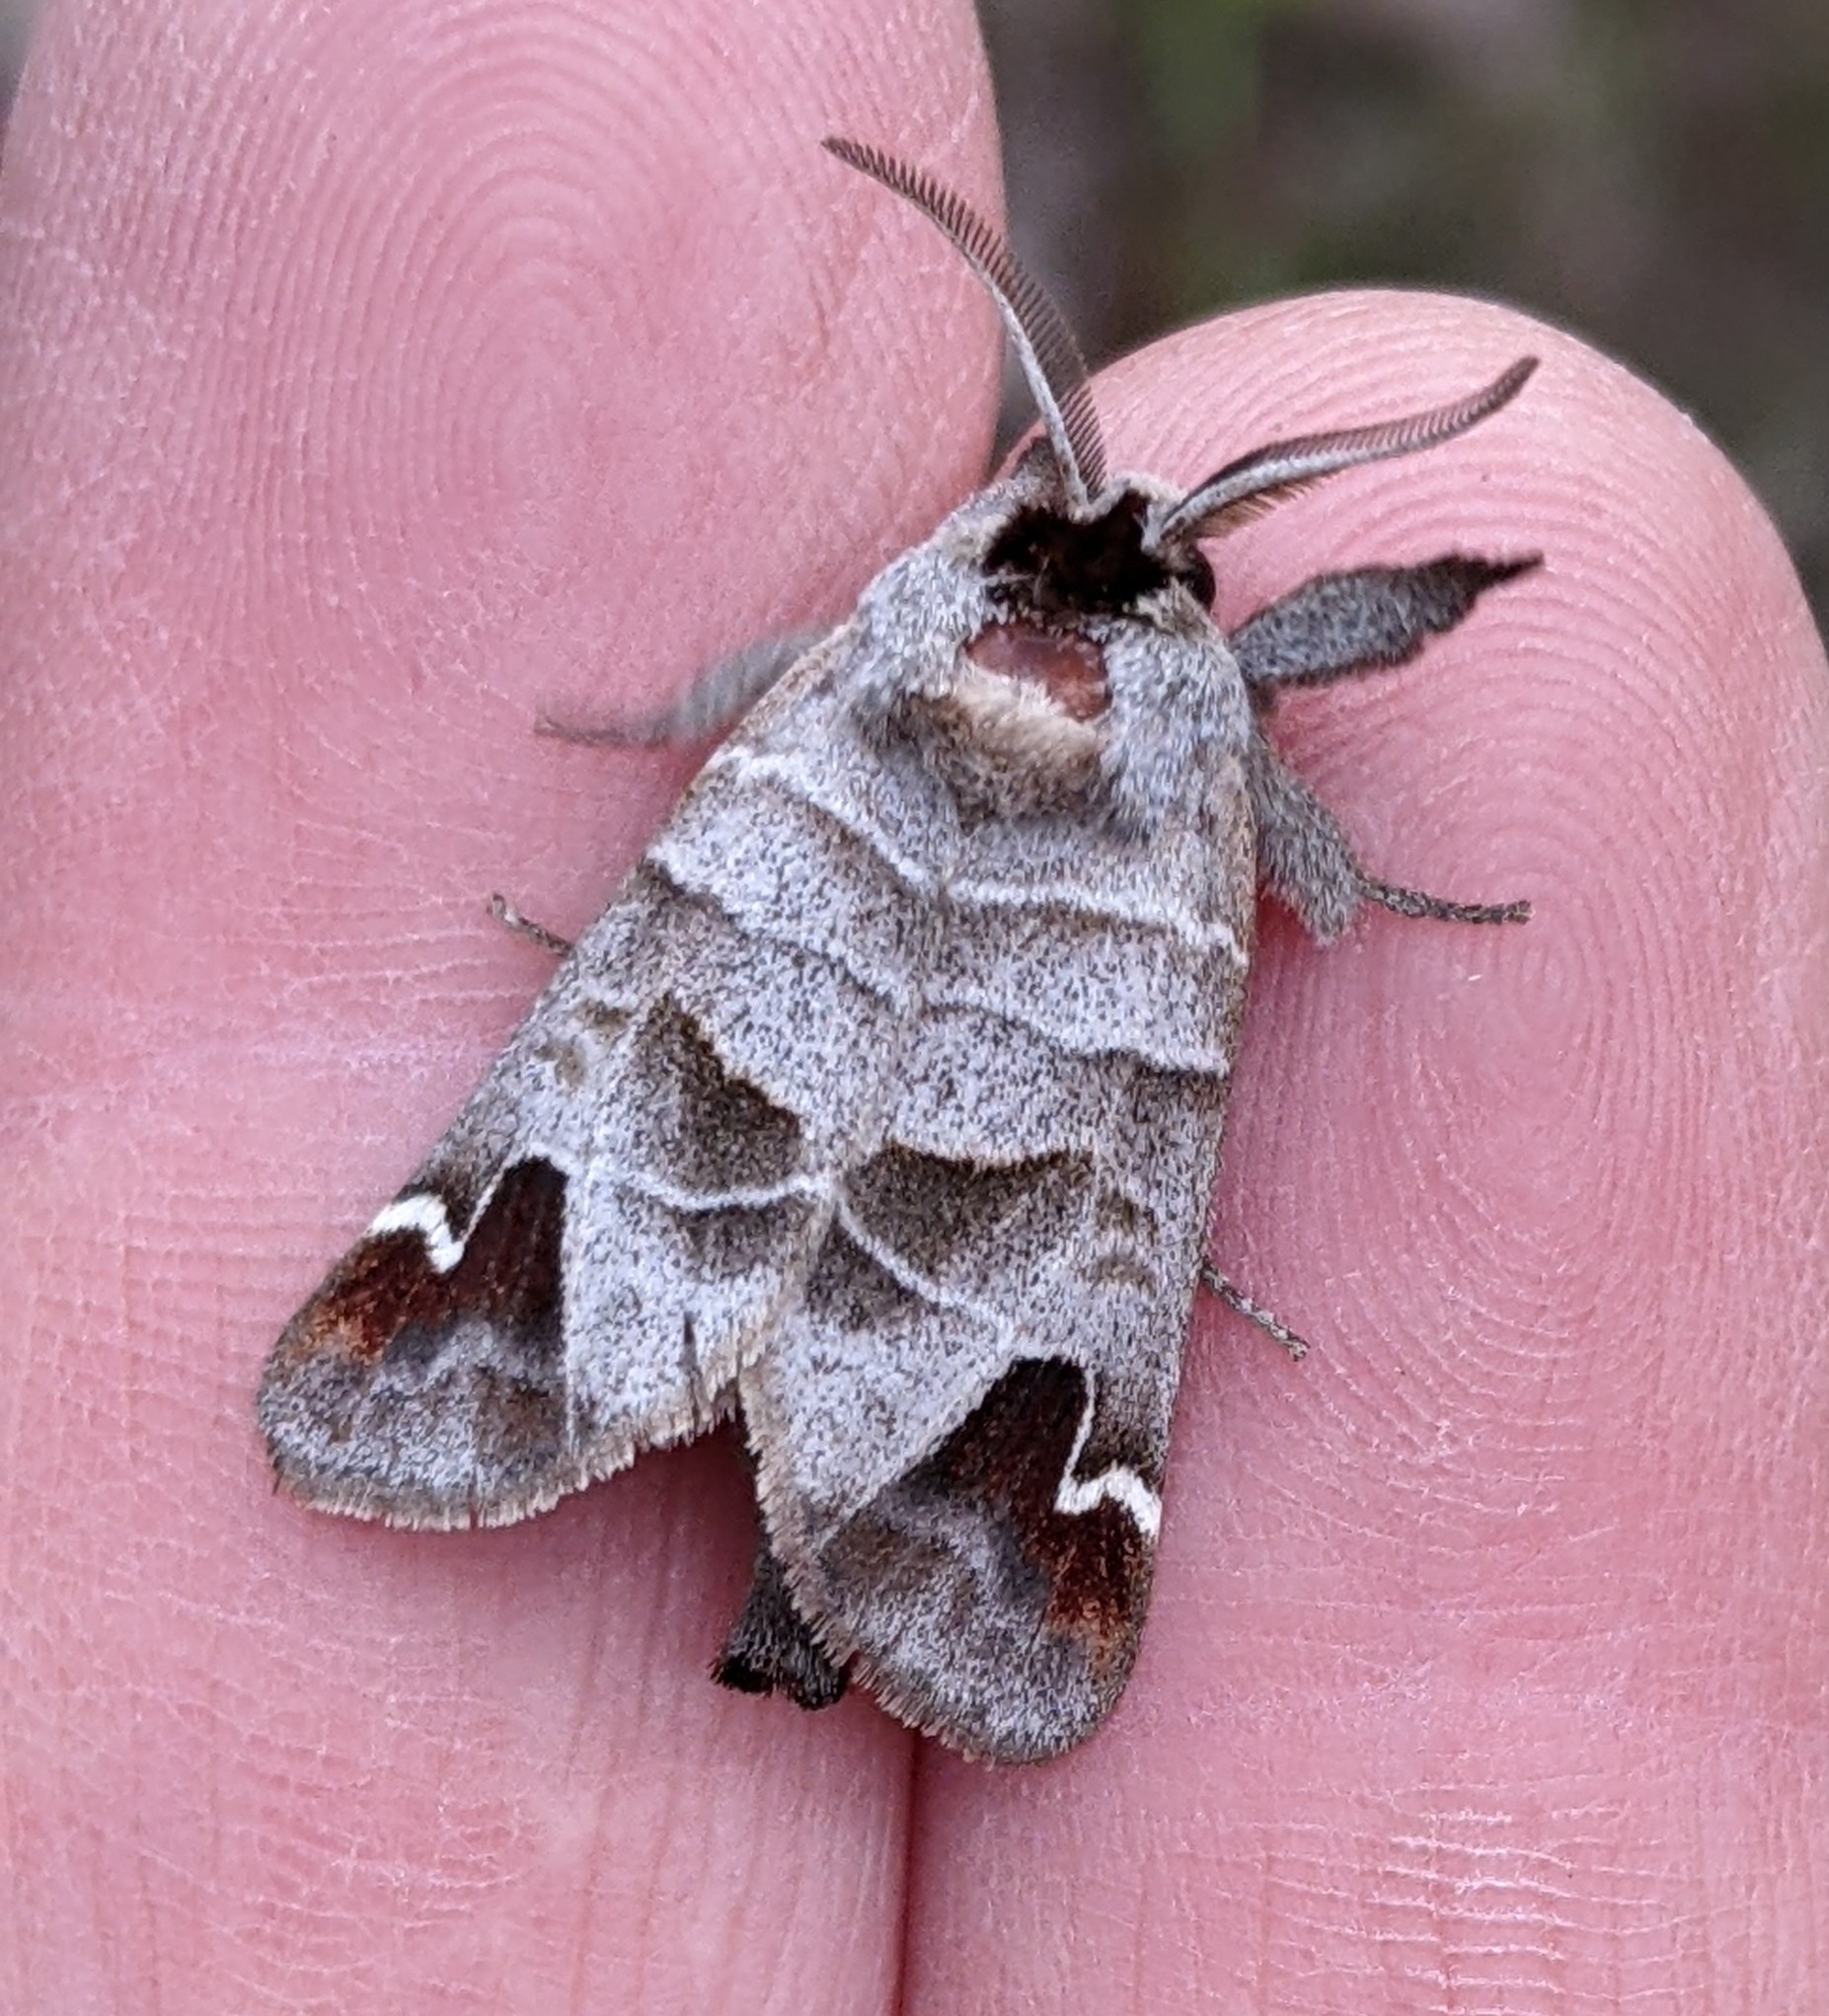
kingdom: Animalia
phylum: Arthropoda
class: Insecta
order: Lepidoptera
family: Notodontidae
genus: Clostera
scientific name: Clostera albosigma
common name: Sigmoid prominent
